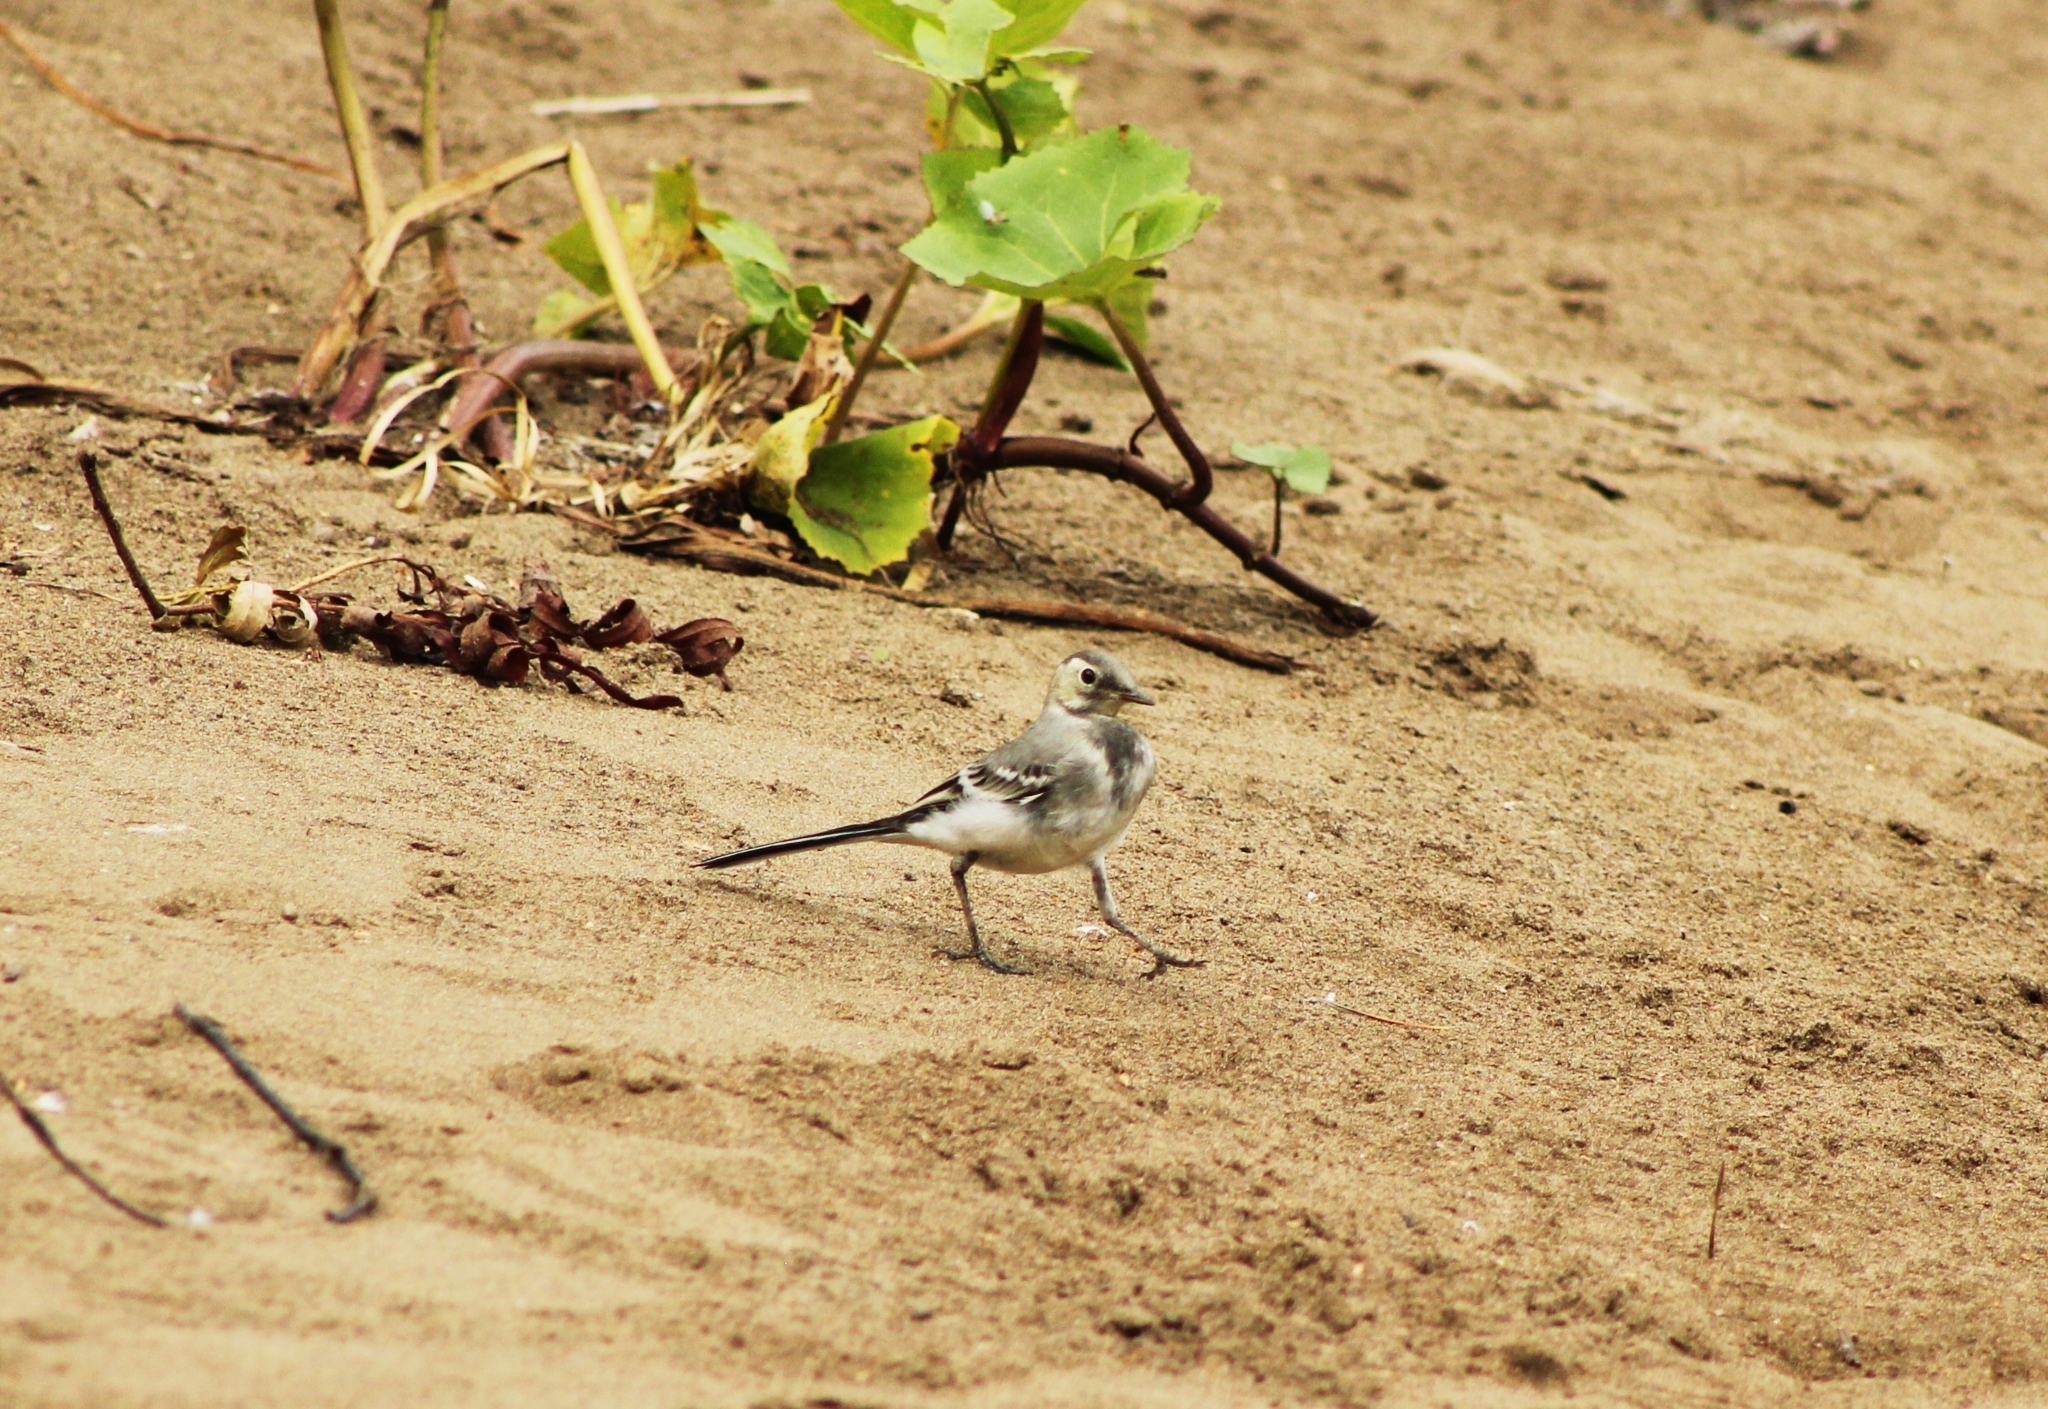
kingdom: Animalia
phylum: Chordata
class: Aves
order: Passeriformes
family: Motacillidae
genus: Motacilla
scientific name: Motacilla alba
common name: White wagtail
